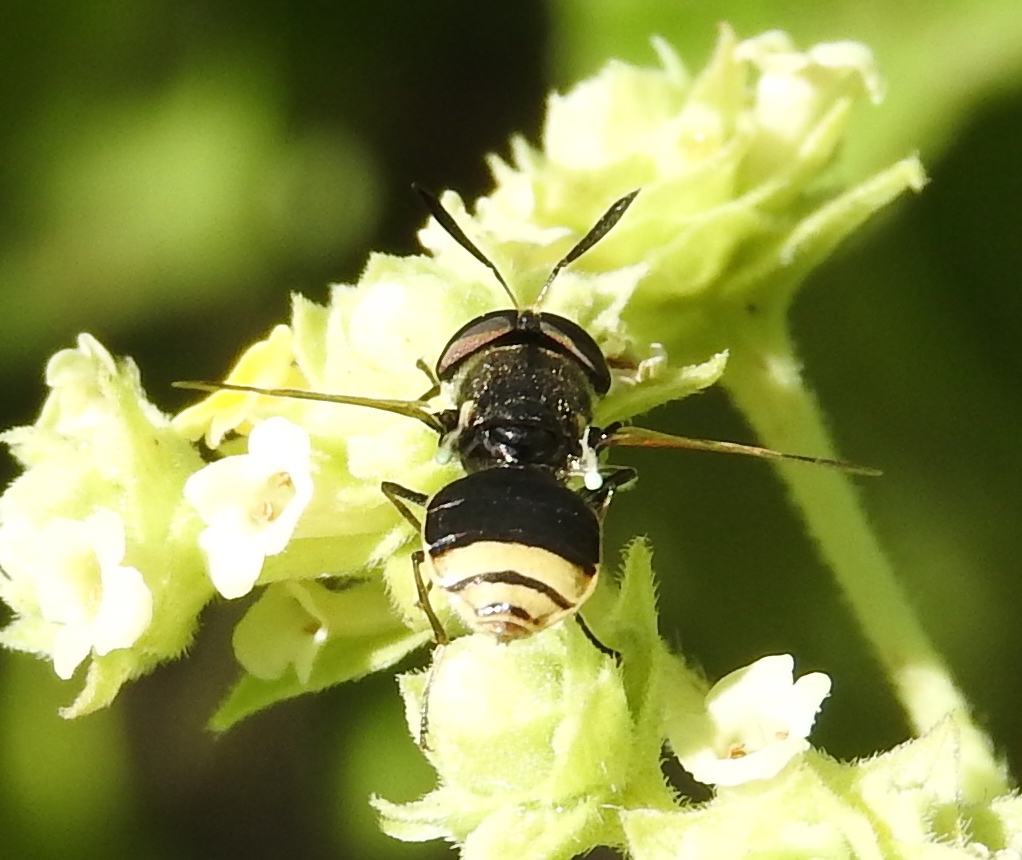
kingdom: Animalia
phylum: Arthropoda
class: Insecta
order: Diptera
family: Stratiomyidae
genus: Hoplitimyia
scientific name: Hoplitimyia
